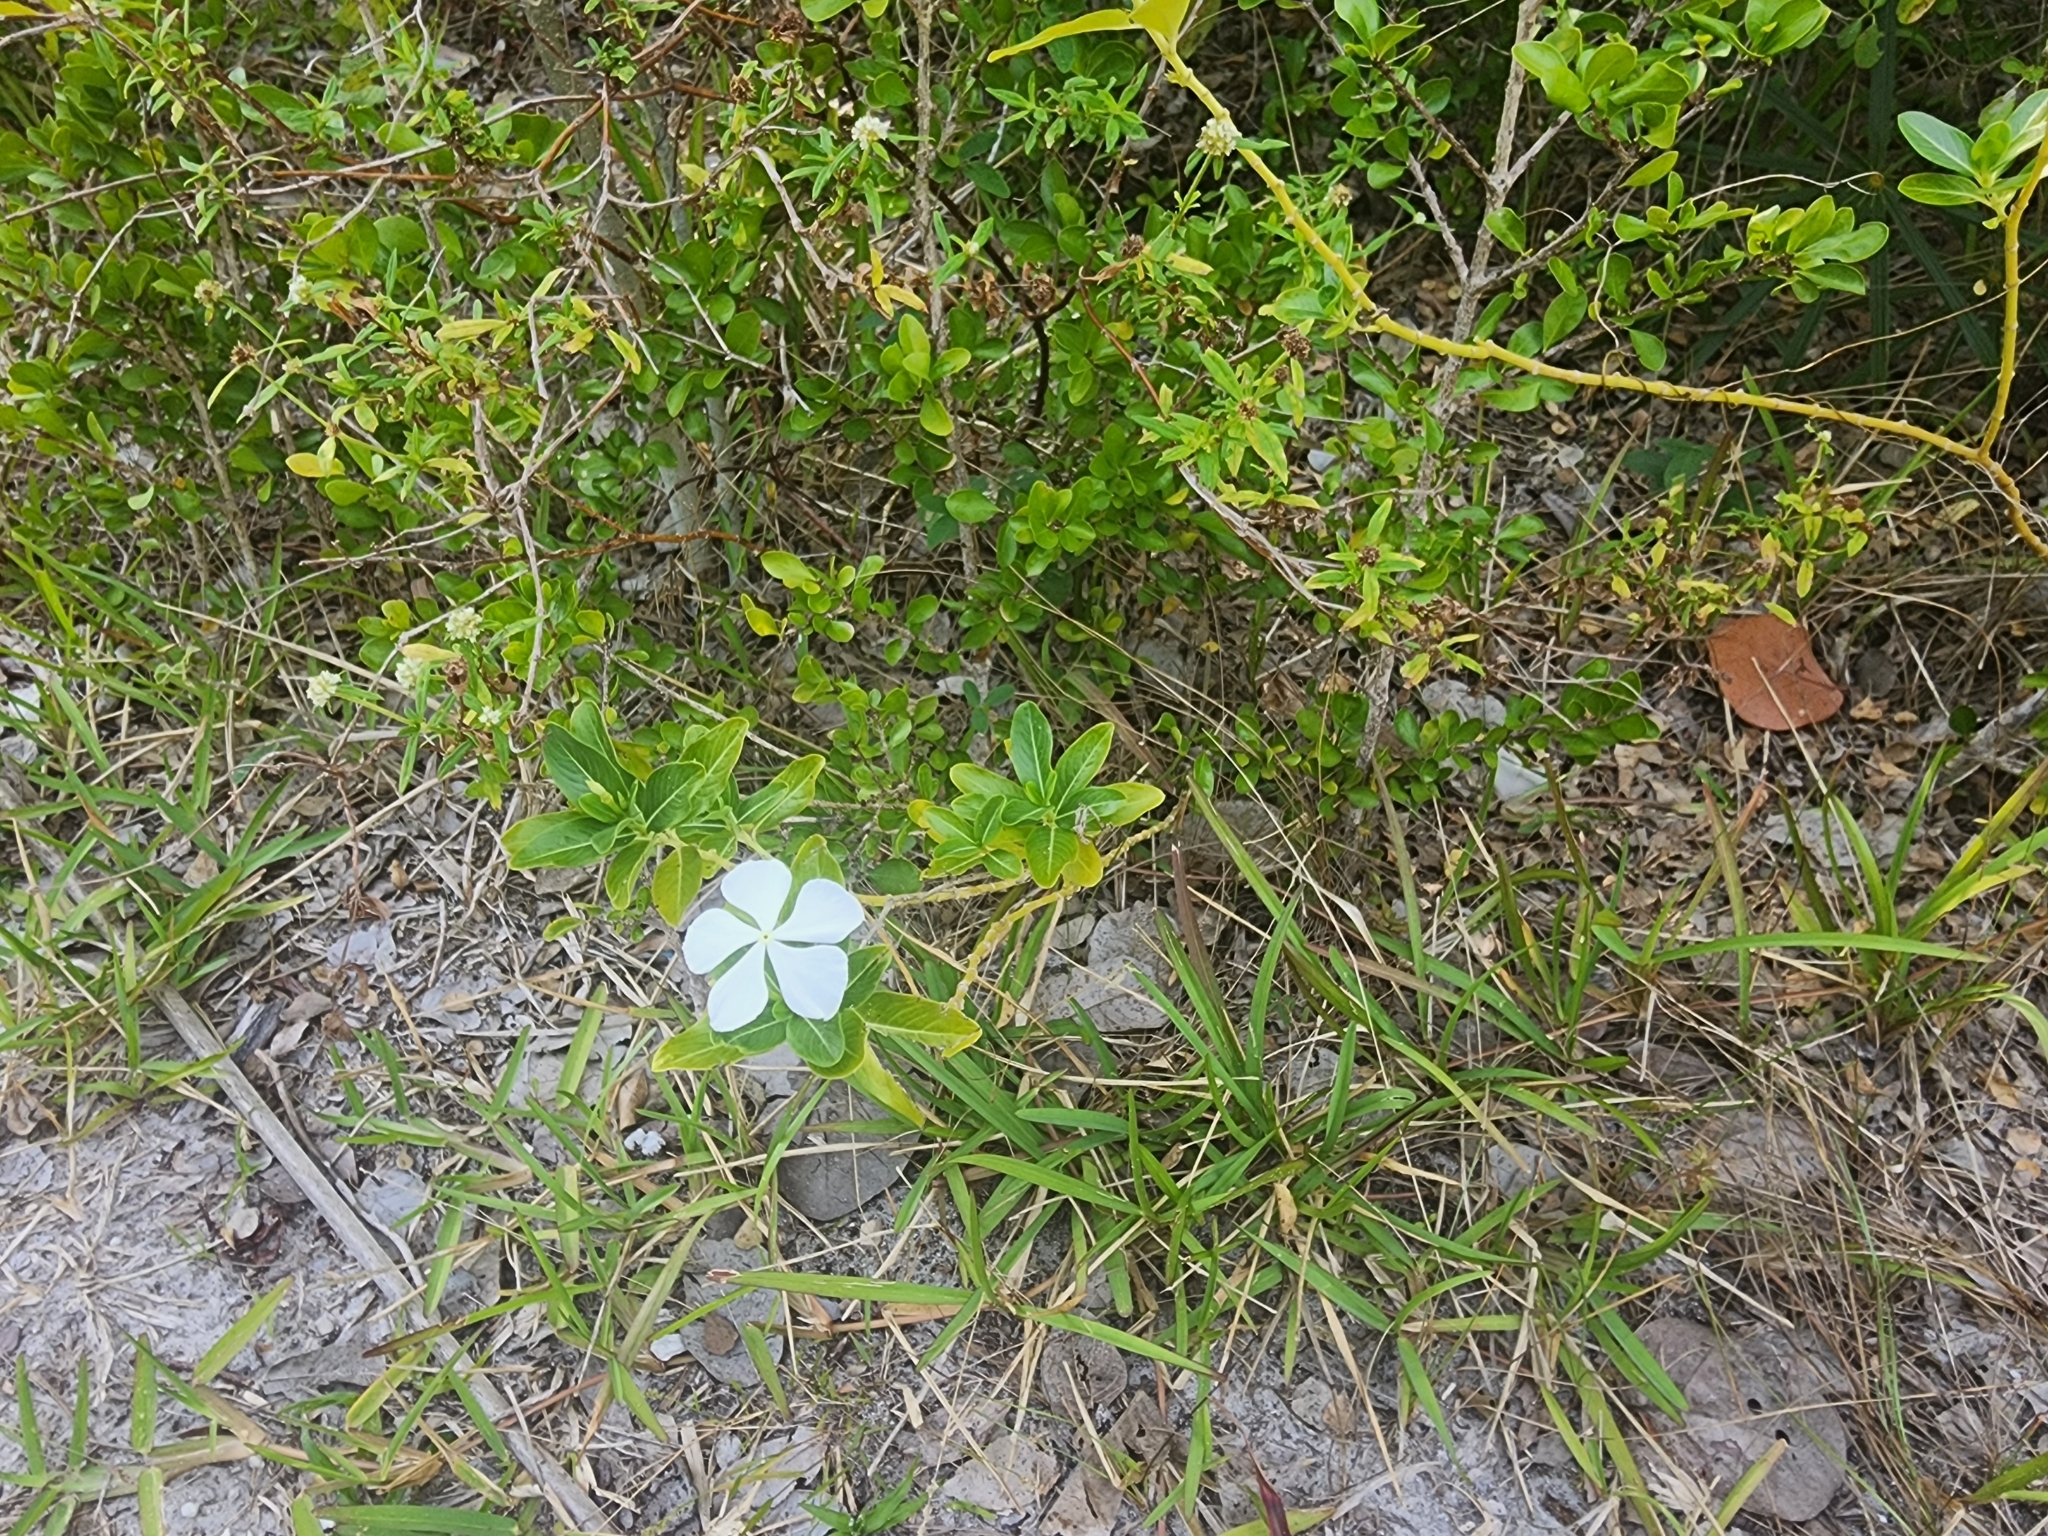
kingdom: Plantae
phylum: Tracheophyta
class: Magnoliopsida
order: Gentianales
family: Apocynaceae
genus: Catharanthus
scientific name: Catharanthus roseus
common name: Madagascar periwinkle
